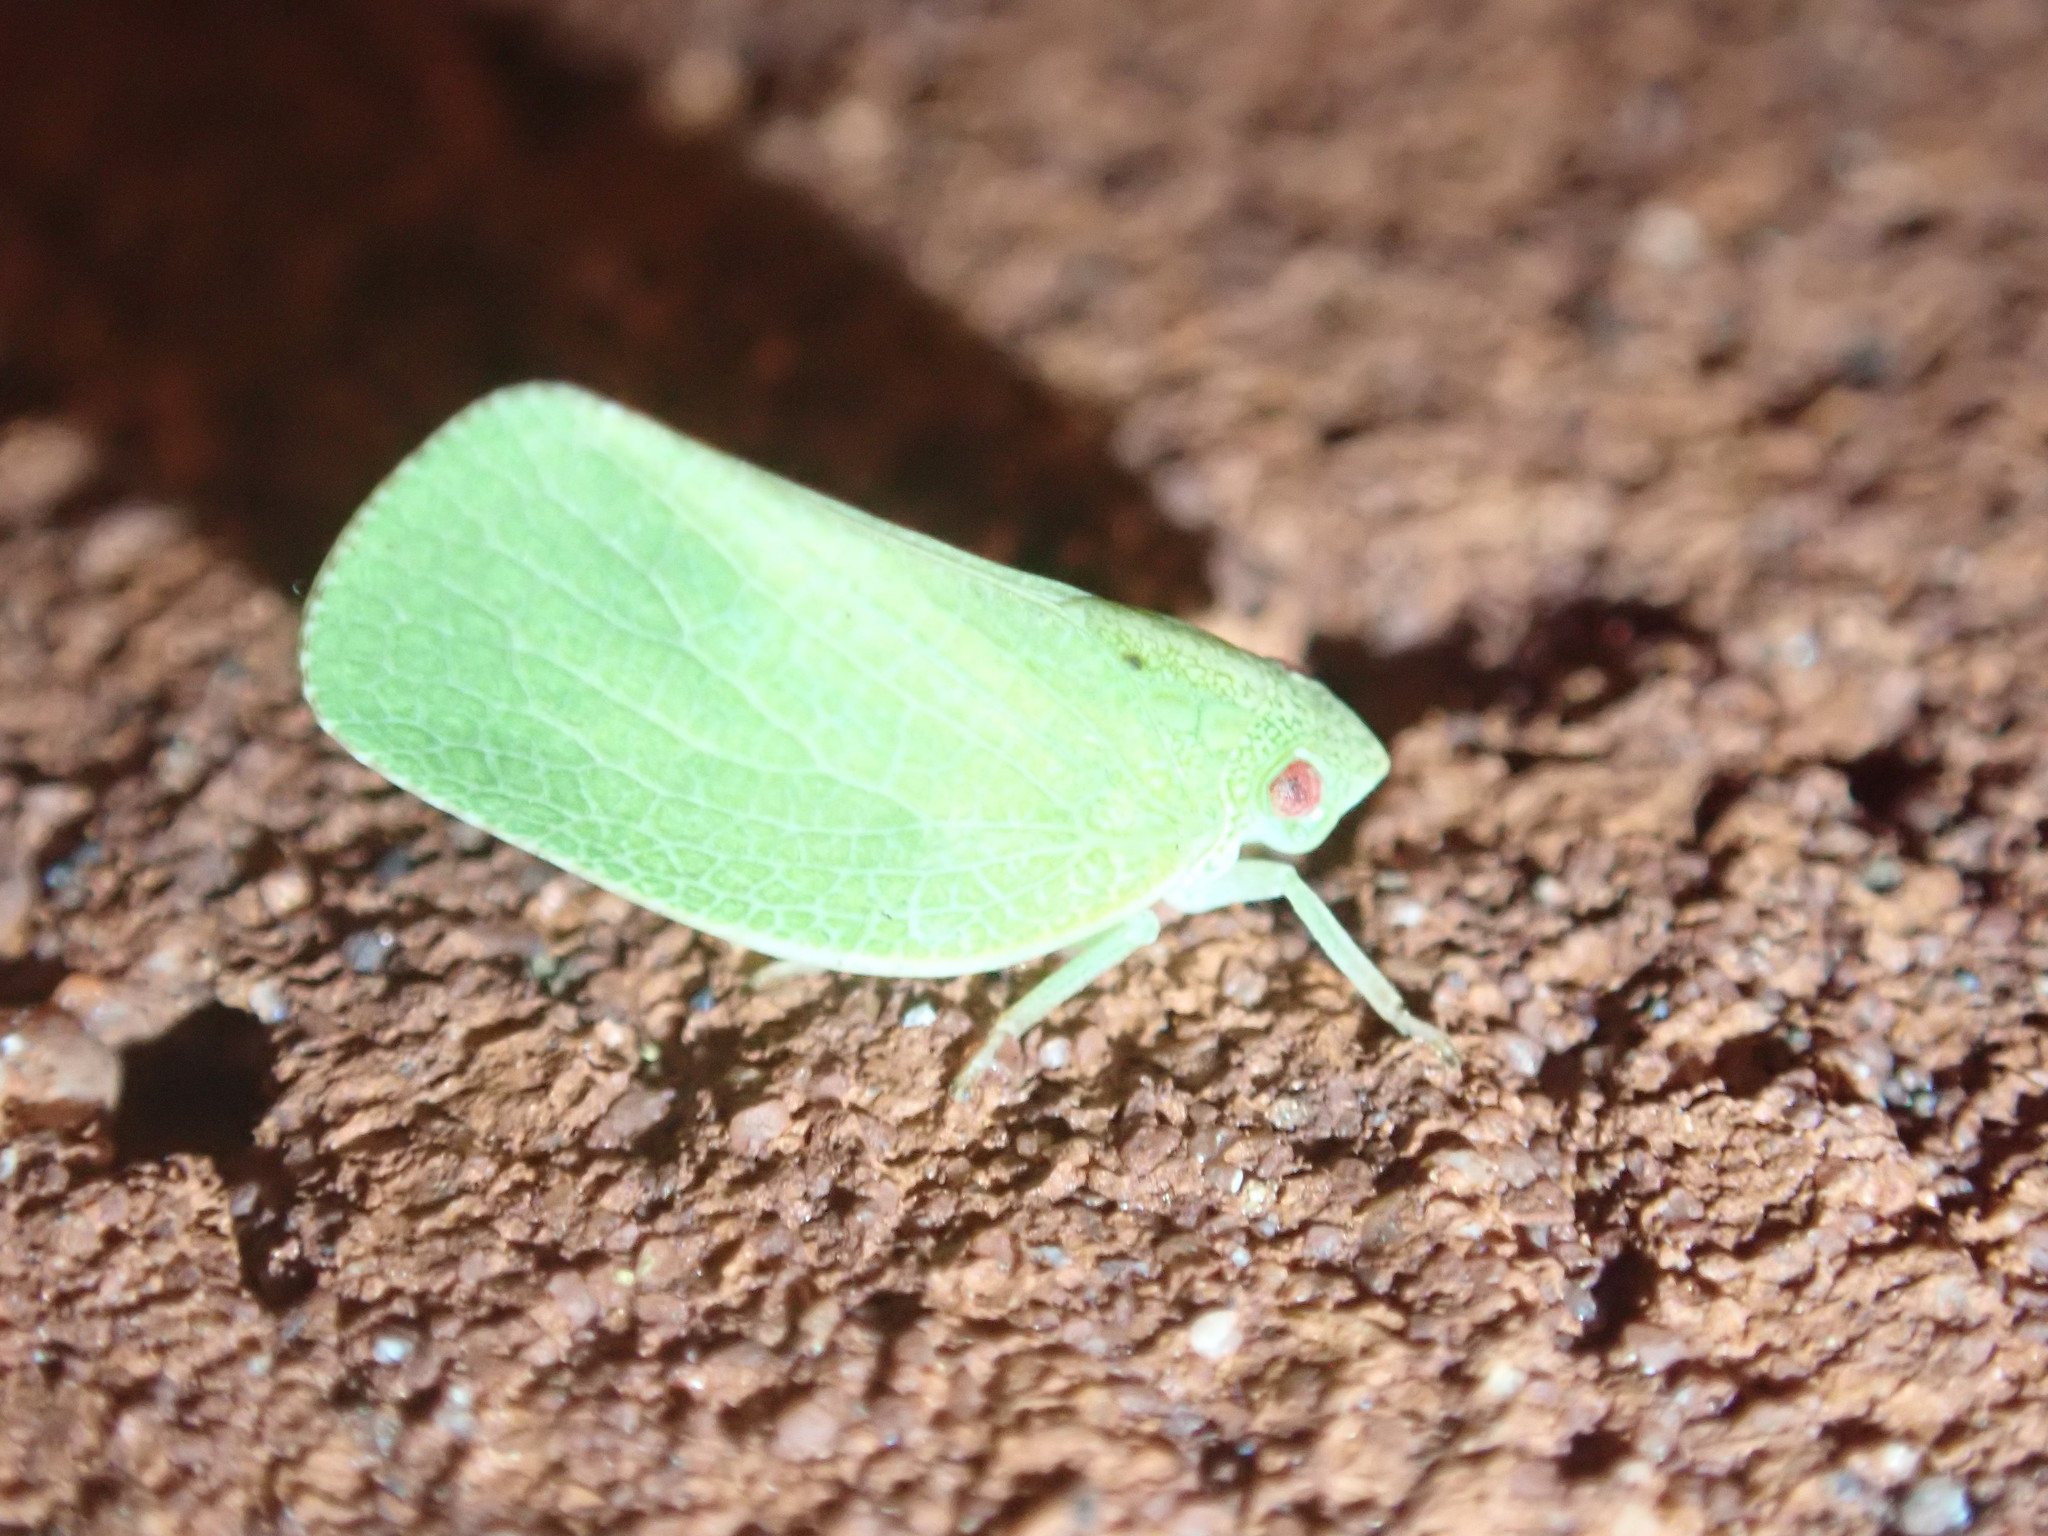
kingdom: Animalia
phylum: Arthropoda
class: Insecta
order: Hemiptera
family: Acanaloniidae
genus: Acanalonia
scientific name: Acanalonia conica
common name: Green cone-headed planthopper
